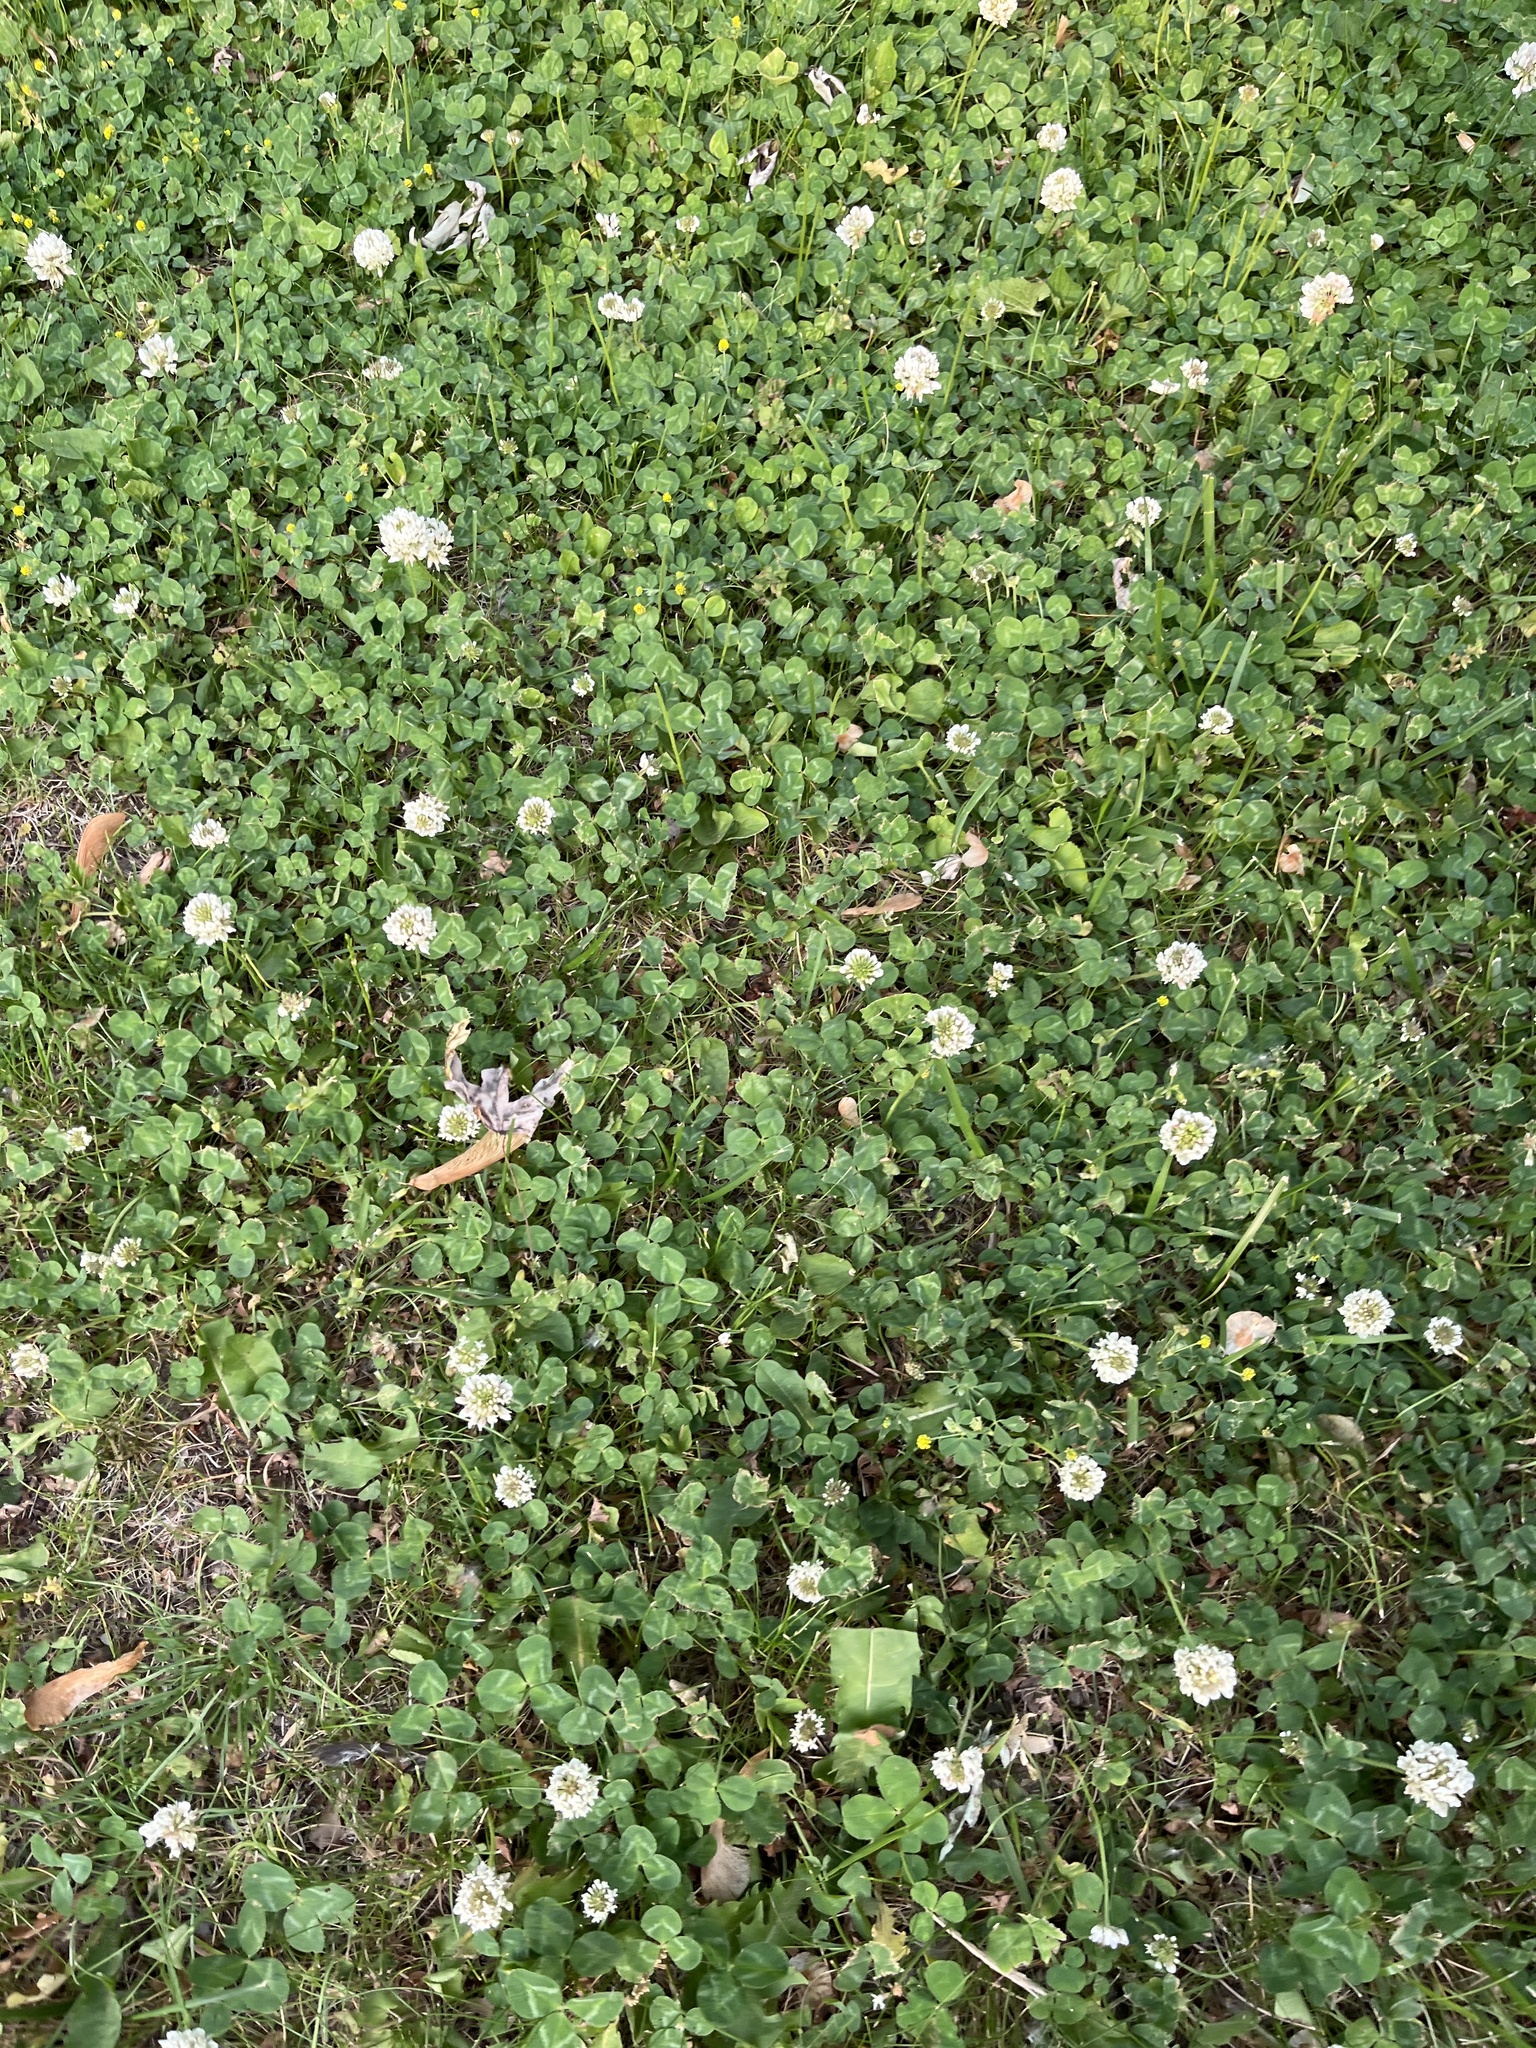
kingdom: Plantae
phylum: Tracheophyta
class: Magnoliopsida
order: Fabales
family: Fabaceae
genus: Trifolium
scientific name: Trifolium repens
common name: White clover
